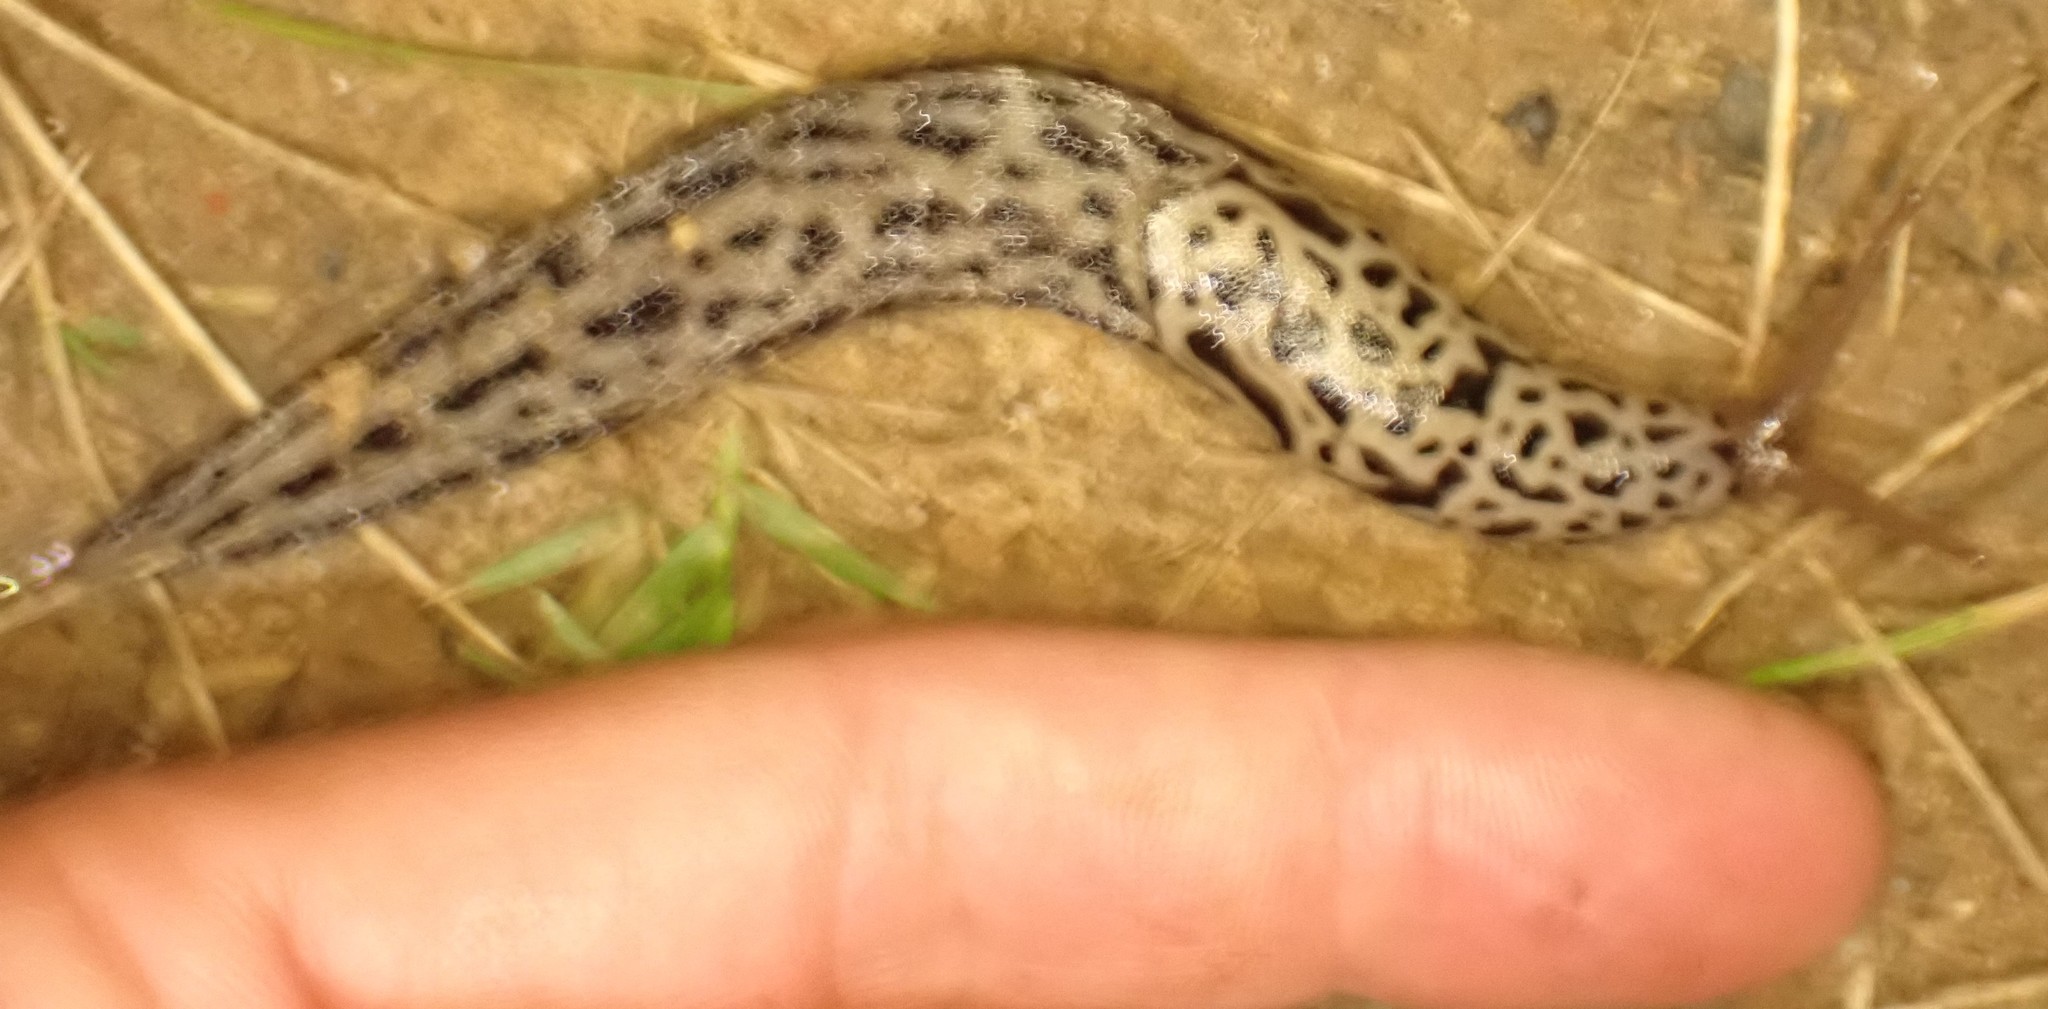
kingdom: Animalia
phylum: Mollusca
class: Gastropoda
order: Stylommatophora
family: Limacidae
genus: Limax
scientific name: Limax maximus
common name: Great grey slug
